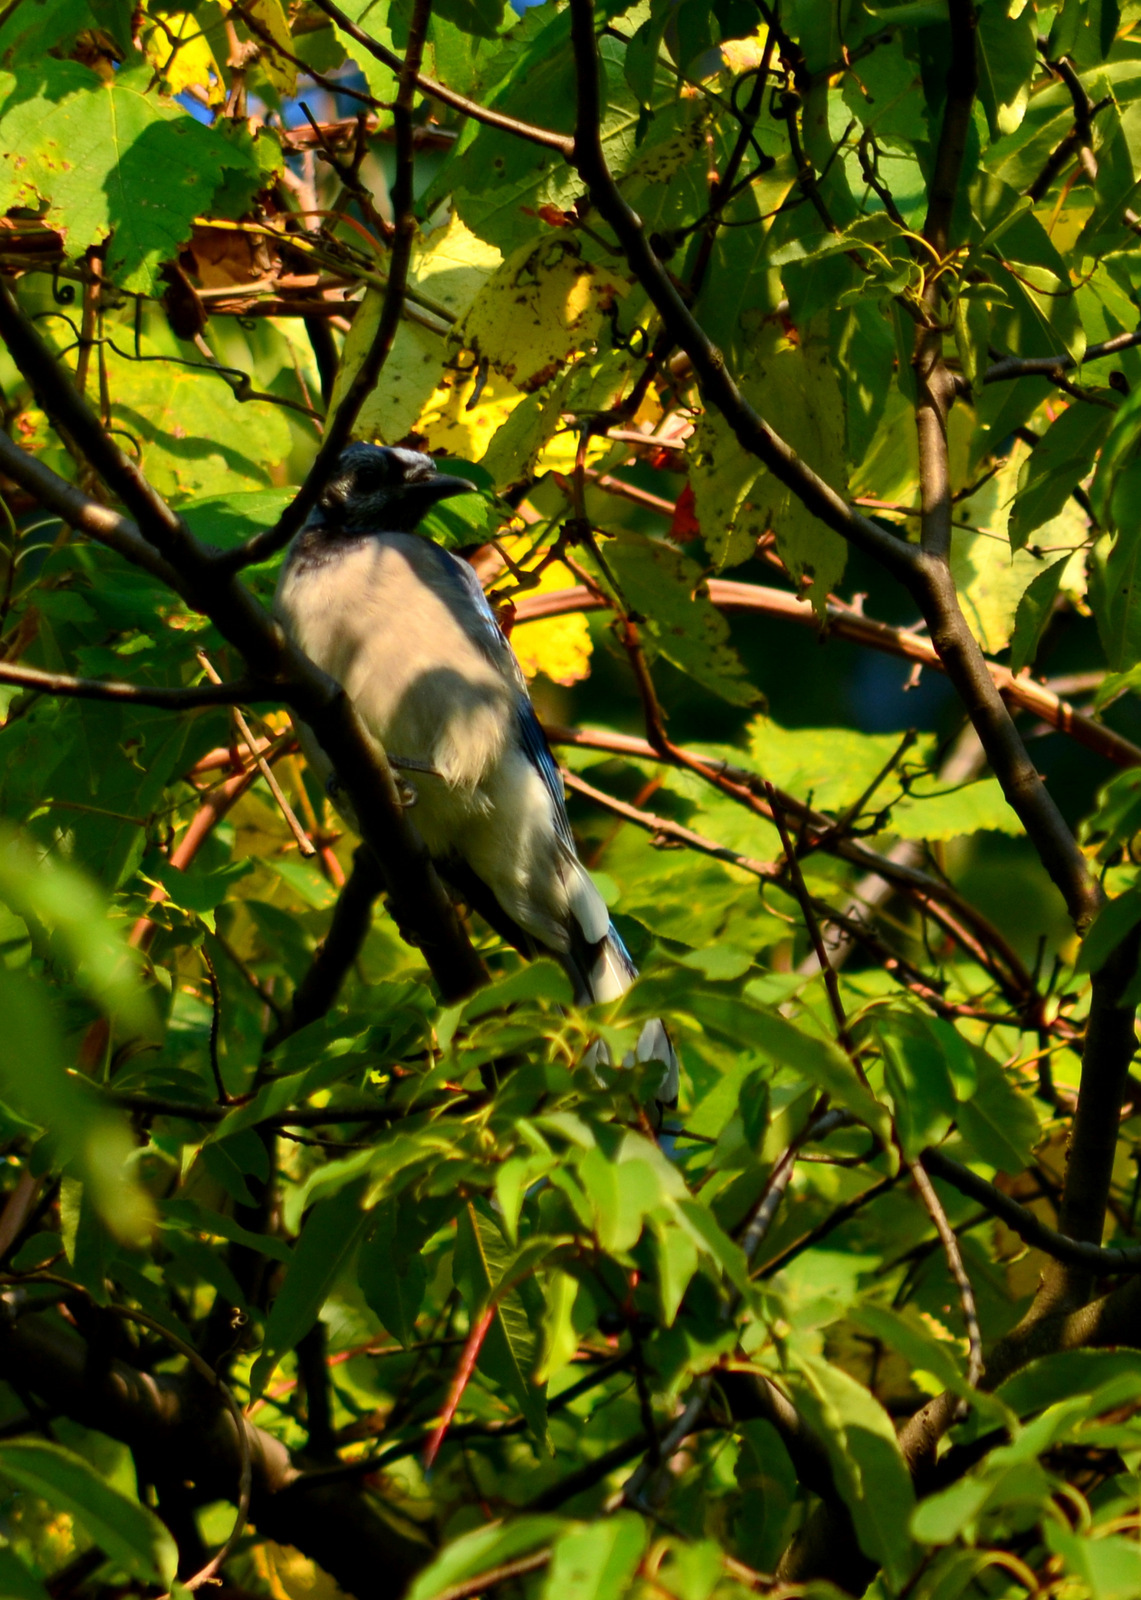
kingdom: Animalia
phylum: Chordata
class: Aves
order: Passeriformes
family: Corvidae
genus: Cyanocitta
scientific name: Cyanocitta cristata
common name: Blue jay
